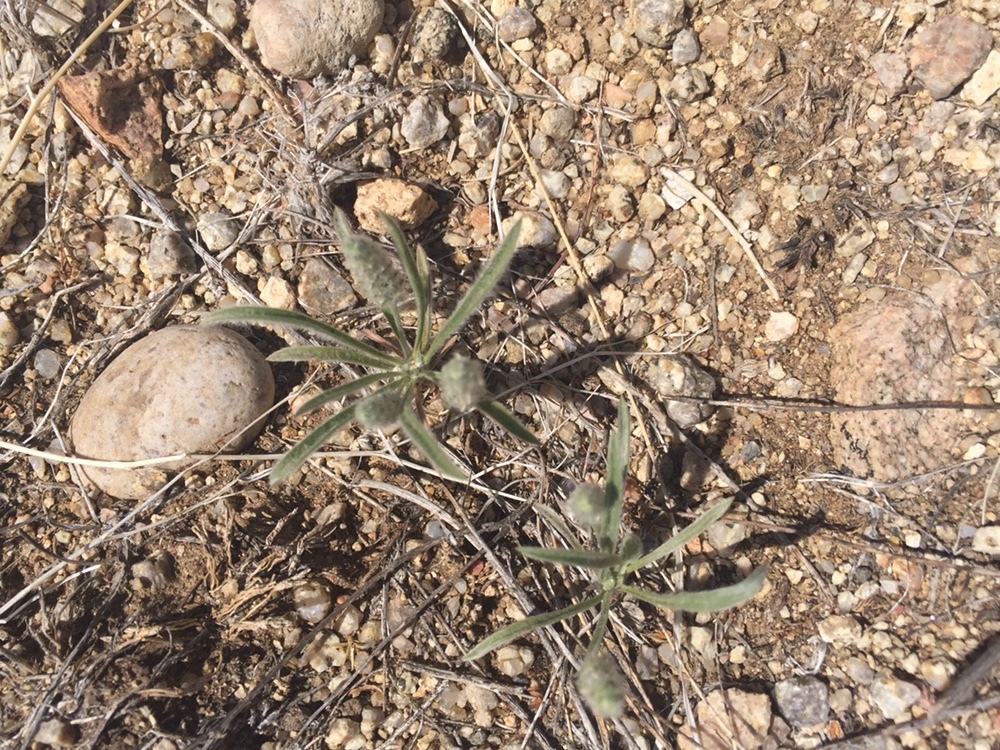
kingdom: Plantae
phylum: Tracheophyta
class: Magnoliopsida
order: Lamiales
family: Plantaginaceae
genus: Plantago
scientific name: Plantago patagonica
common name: Patagonia indian-wheat
